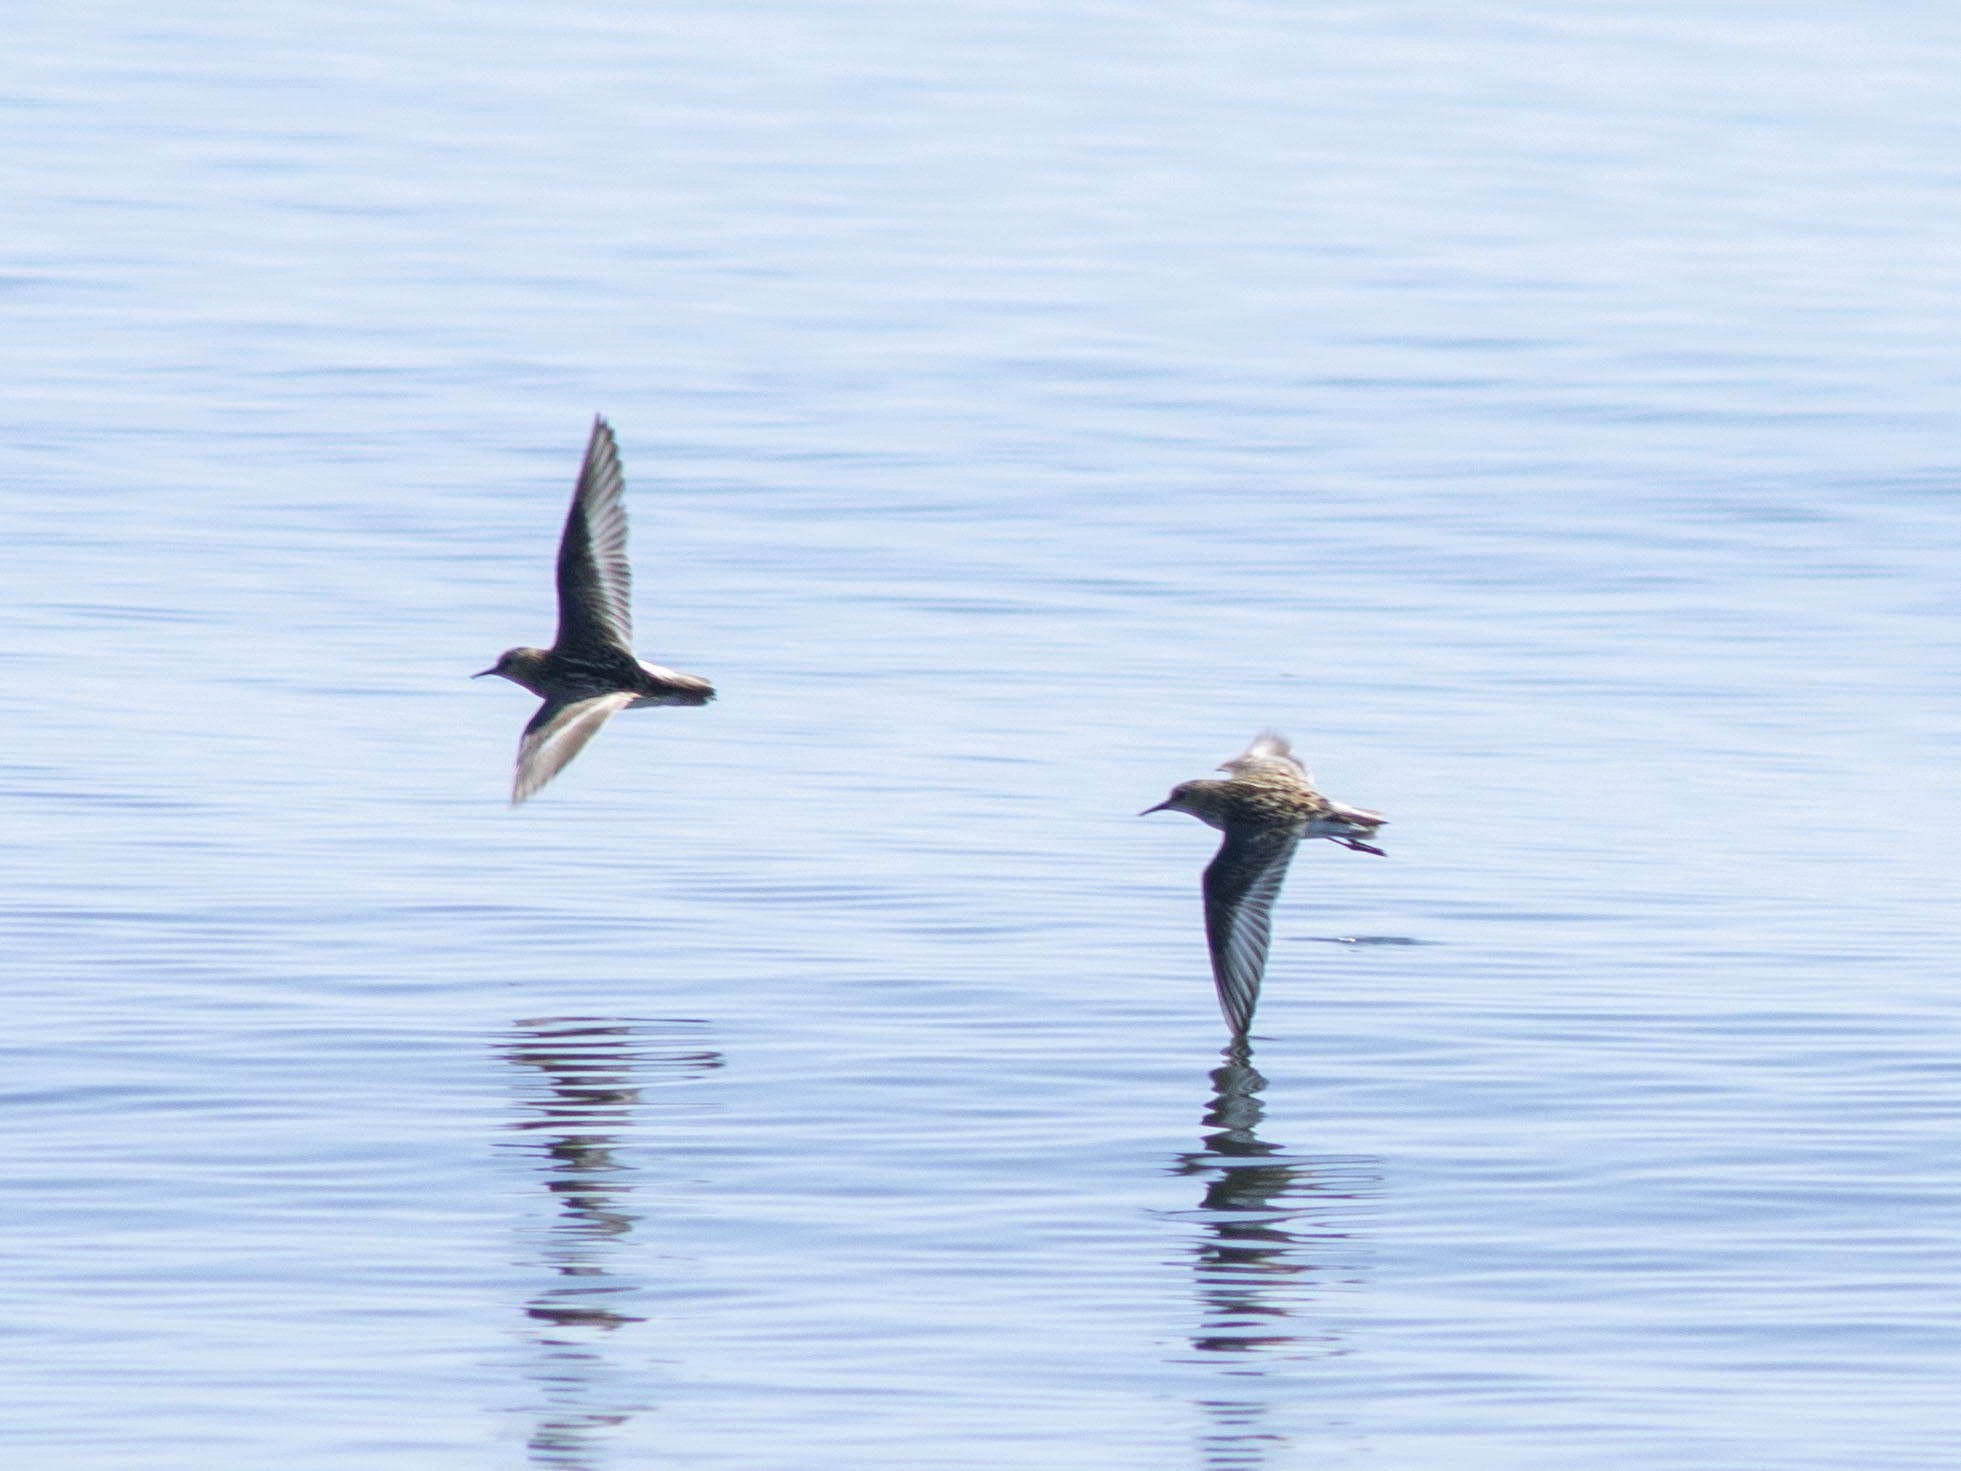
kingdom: Animalia
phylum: Chordata
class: Aves
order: Charadriiformes
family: Scolopacidae
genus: Calidris
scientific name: Calidris minuta
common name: Little stint
